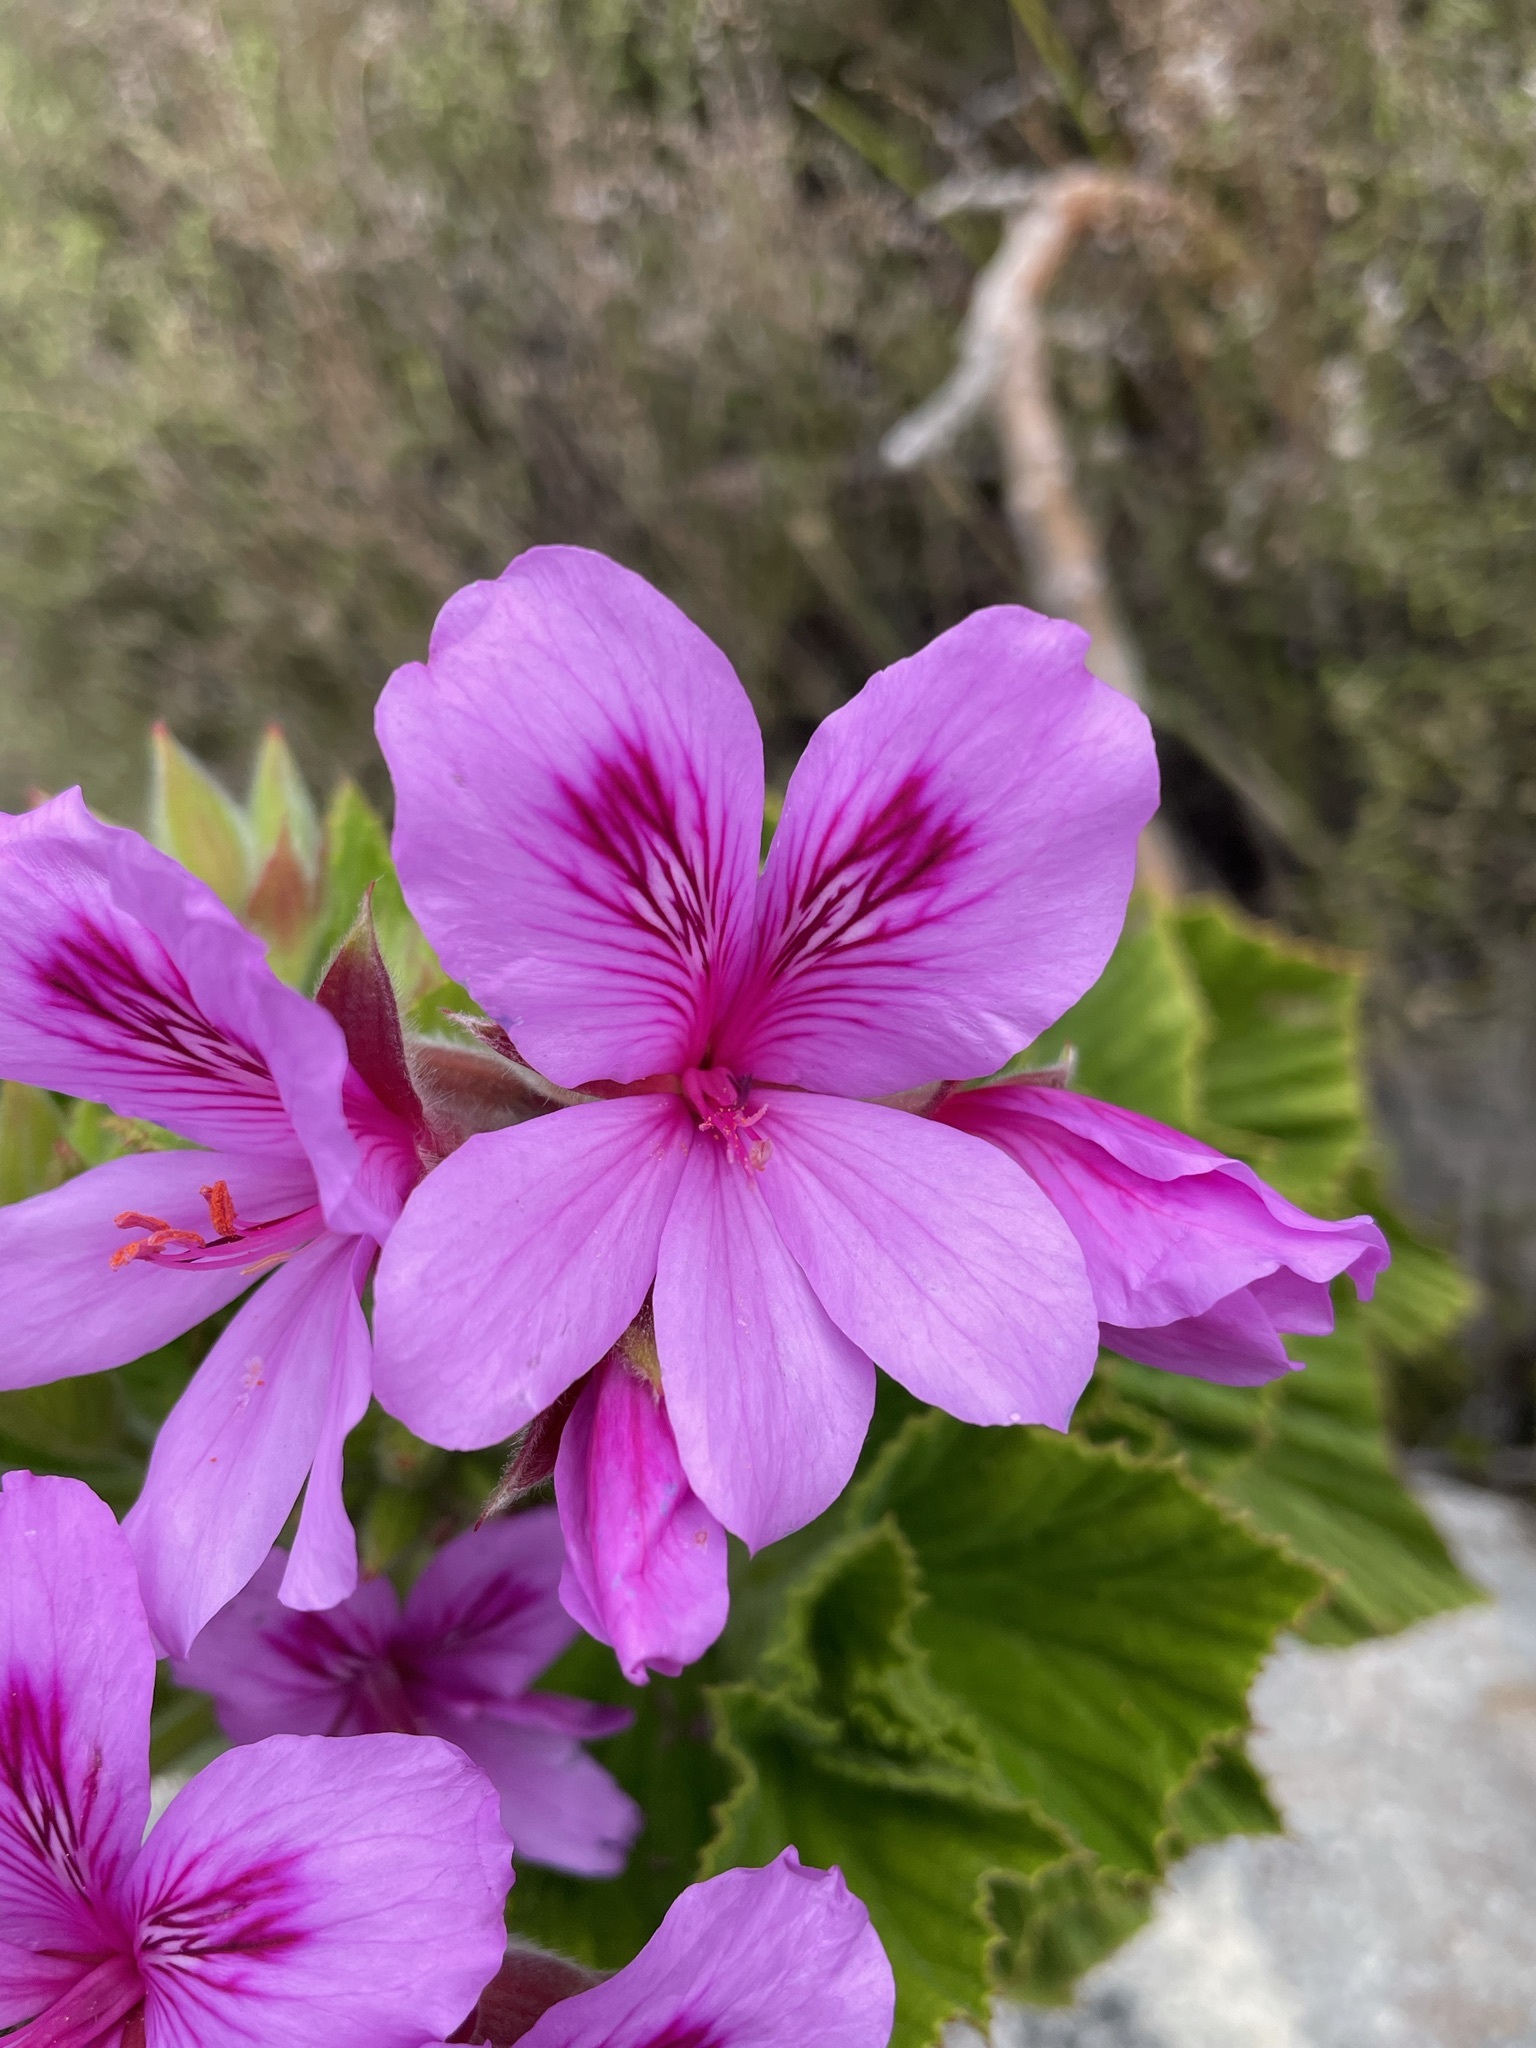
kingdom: Plantae
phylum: Tracheophyta
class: Magnoliopsida
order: Geraniales
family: Geraniaceae
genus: Pelargonium
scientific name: Pelargonium cucullatum
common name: Tree pelargonium
